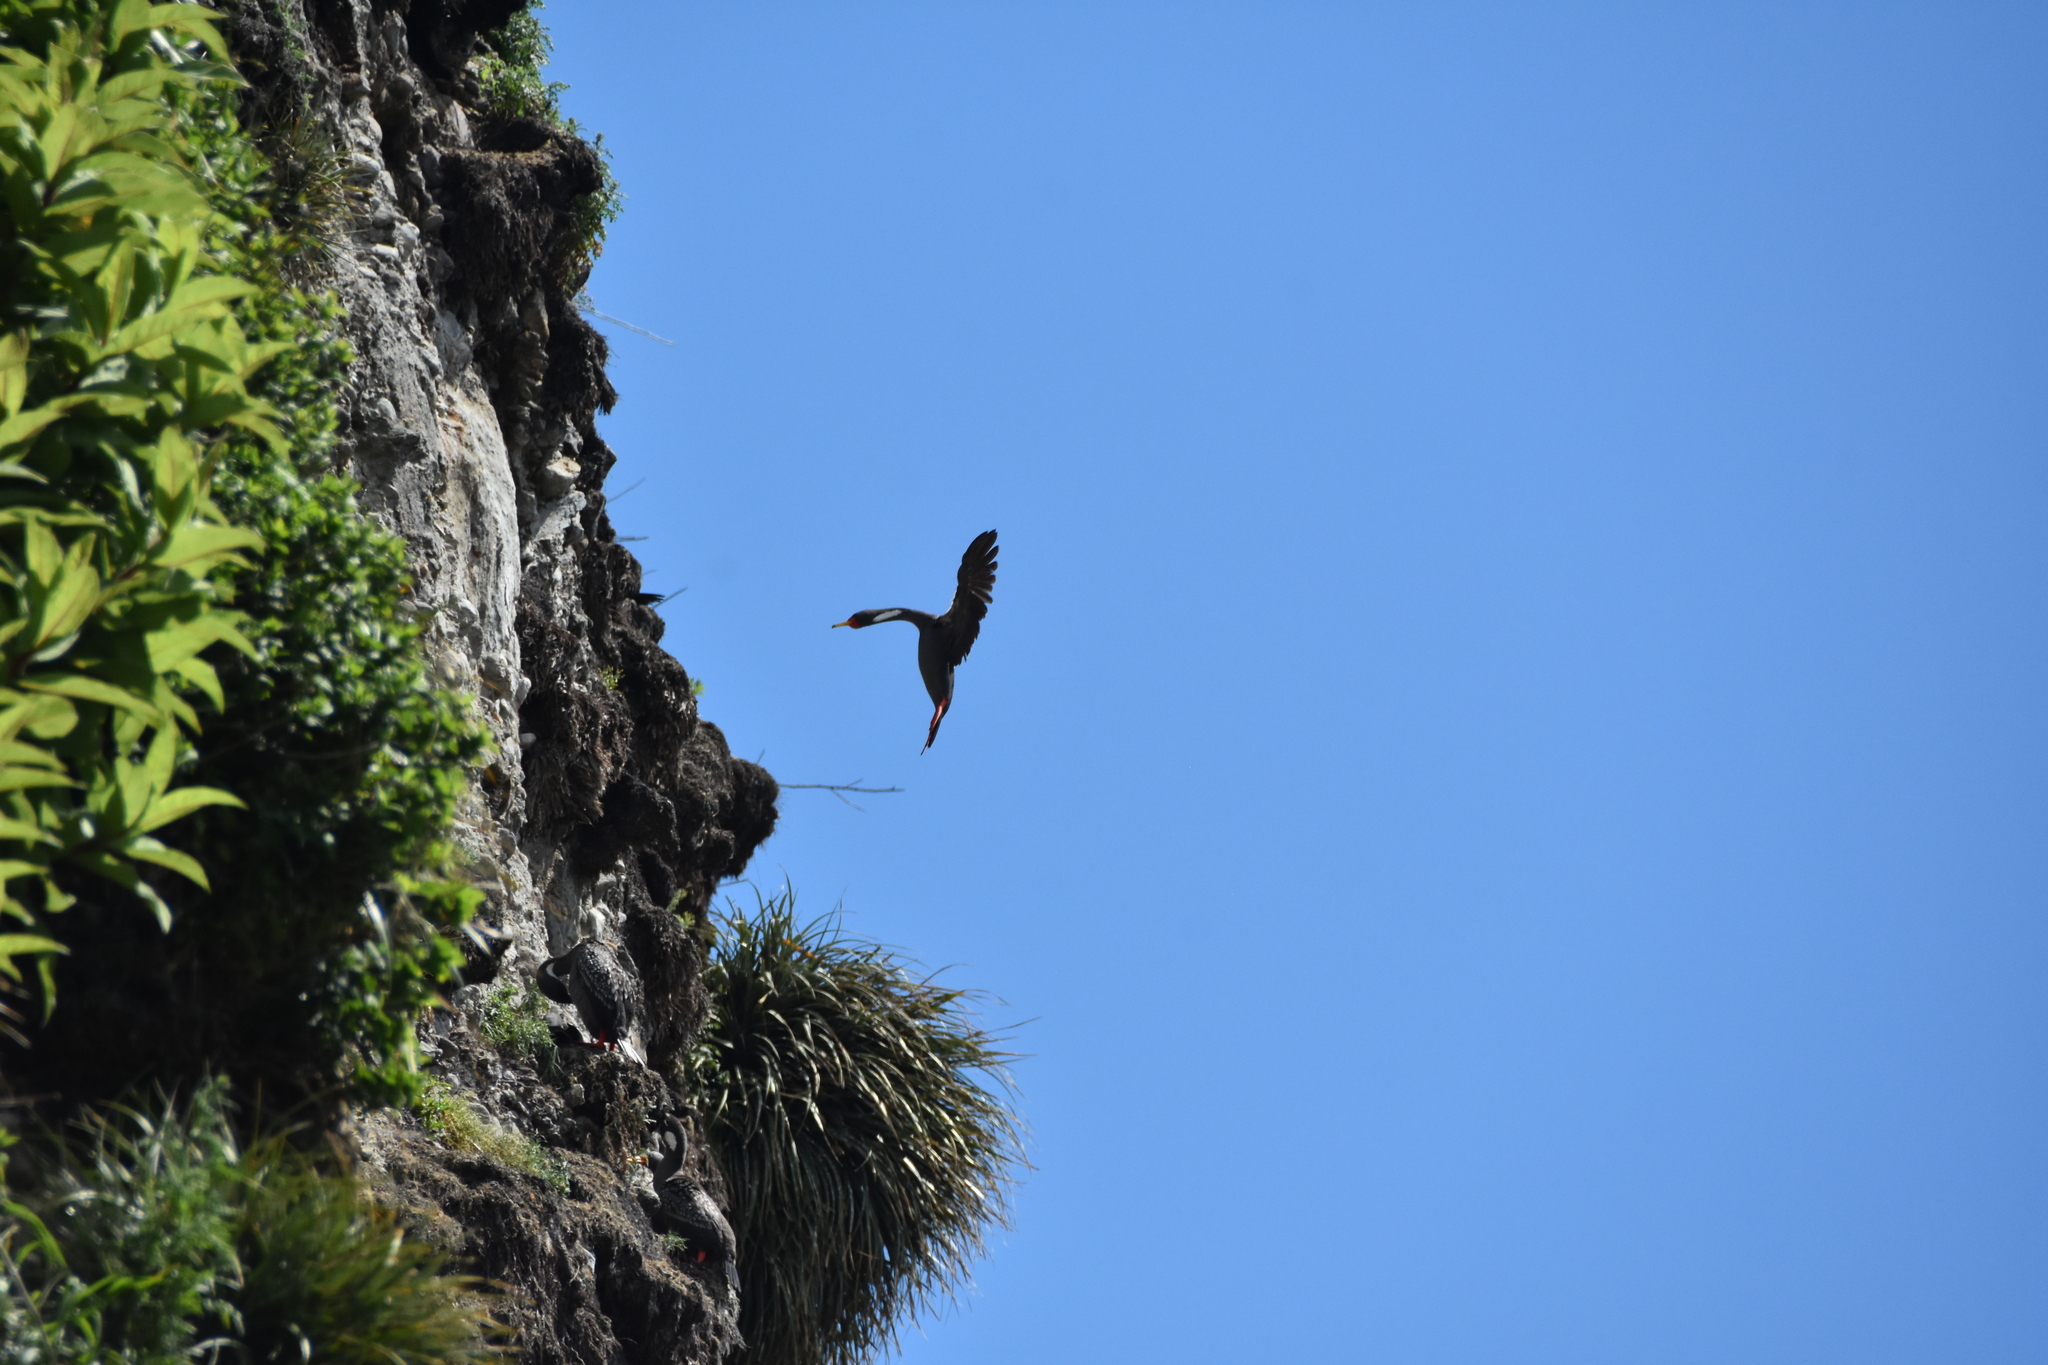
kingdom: Animalia
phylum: Chordata
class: Aves
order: Suliformes
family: Phalacrocoracidae
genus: Phalacrocorax
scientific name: Phalacrocorax gaimardi
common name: Red-legged cormorant
